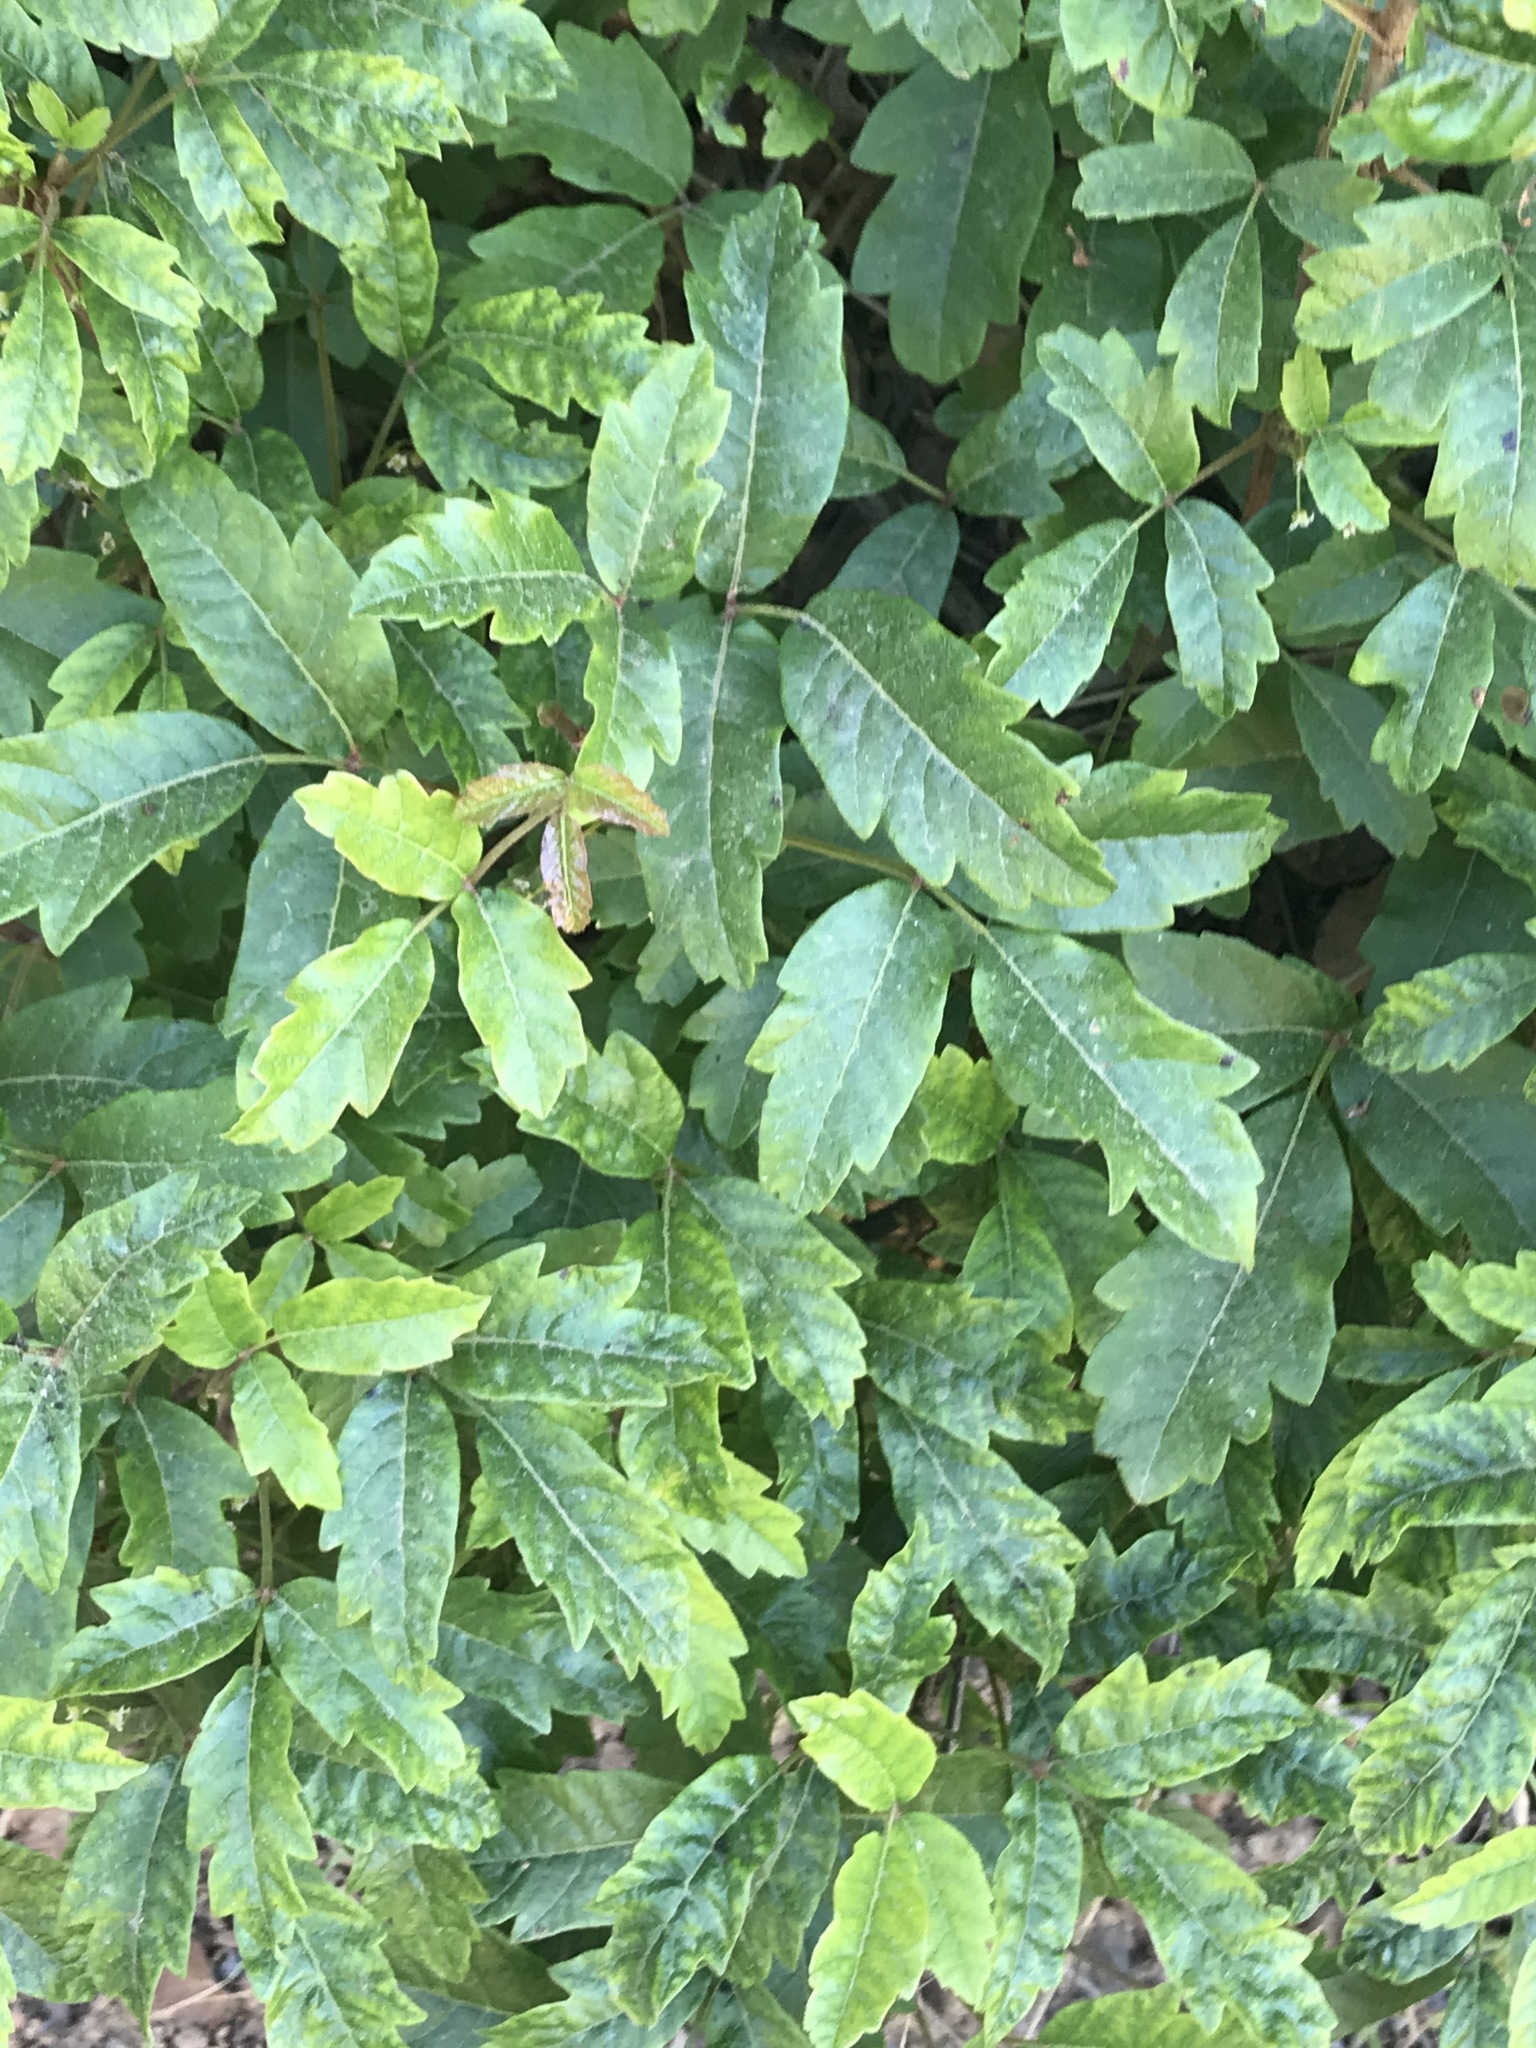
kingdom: Plantae
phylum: Tracheophyta
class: Magnoliopsida
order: Sapindales
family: Anacardiaceae
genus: Toxicodendron
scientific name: Toxicodendron diversilobum
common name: Pacific poison-oak
